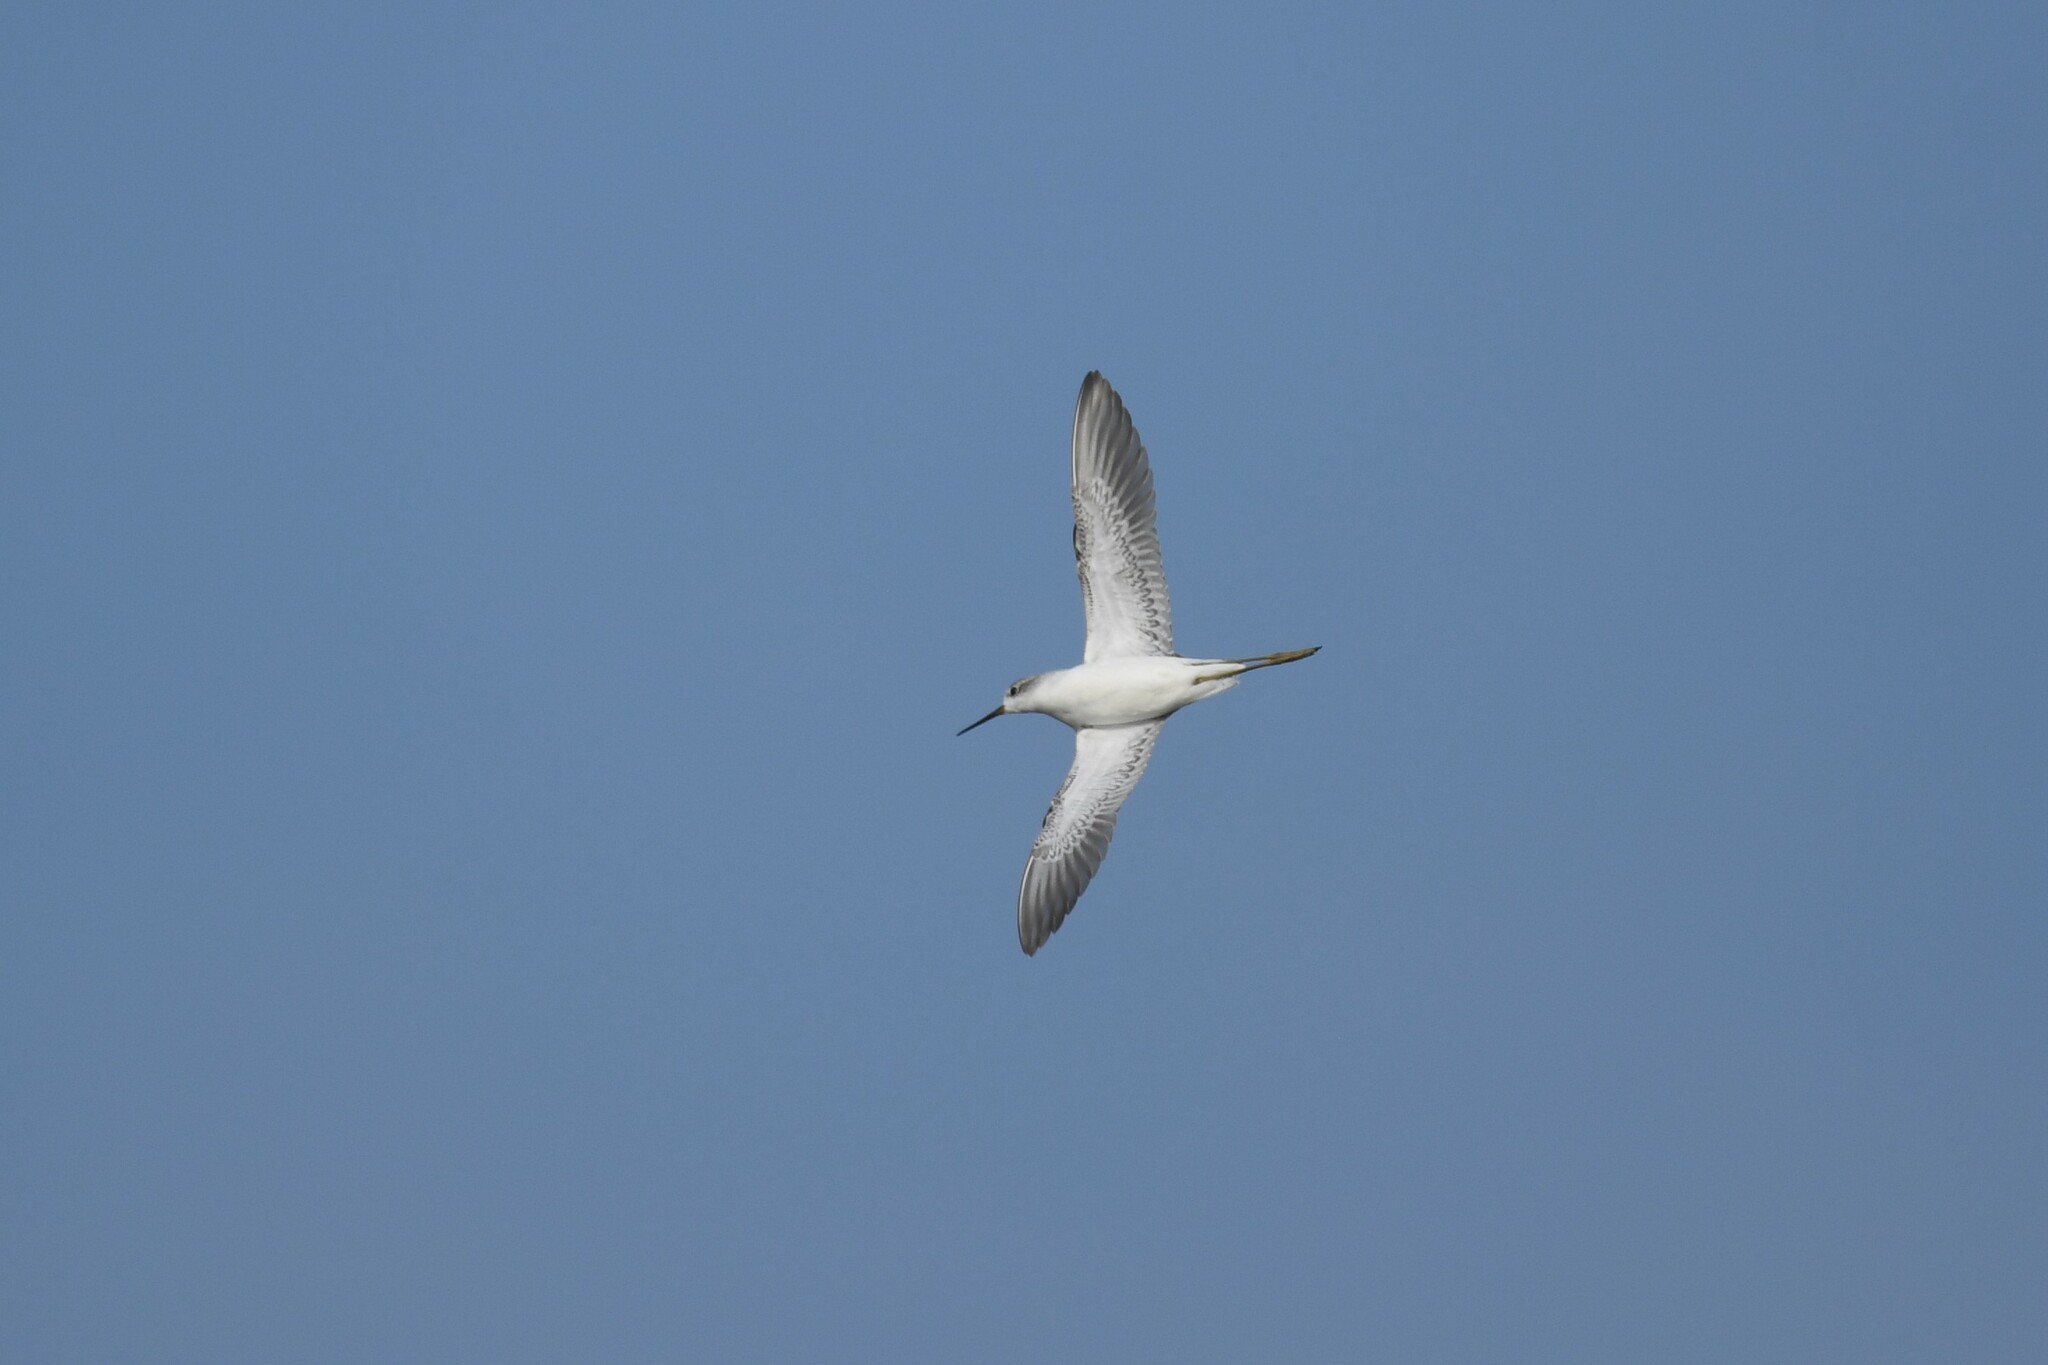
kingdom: Animalia
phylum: Chordata
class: Aves
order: Charadriiformes
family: Scolopacidae
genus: Tringa
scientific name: Tringa stagnatilis
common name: Marsh sandpiper
